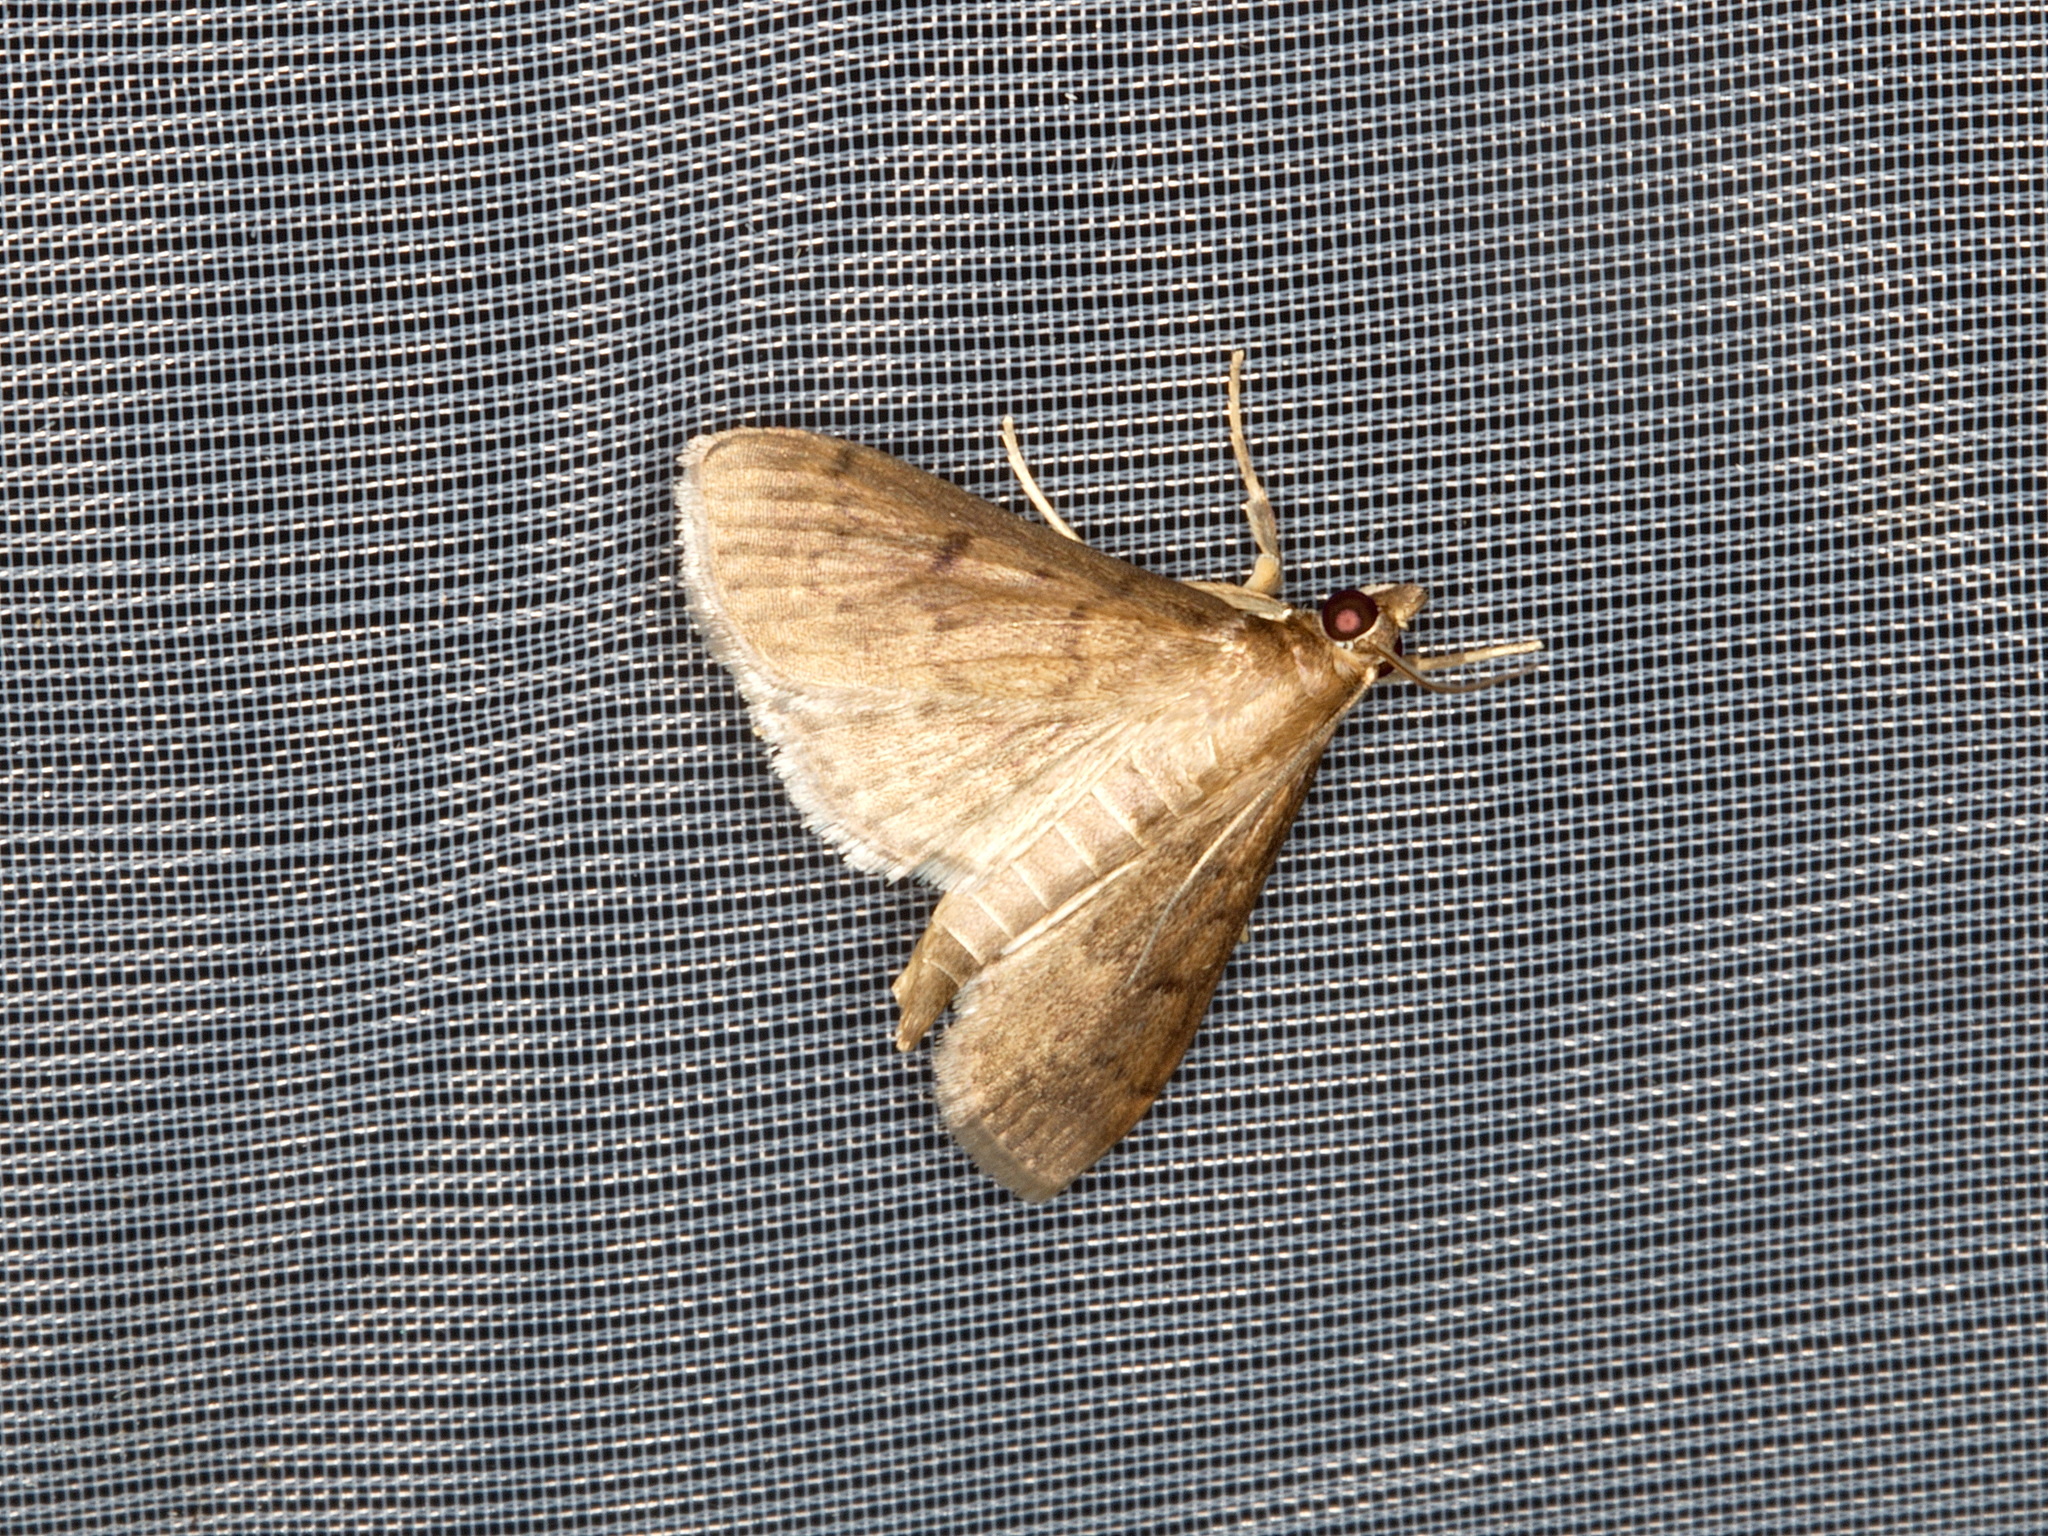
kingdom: Animalia
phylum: Arthropoda
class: Insecta
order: Lepidoptera
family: Crambidae
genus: Herpetogramma
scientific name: Herpetogramma phaeopteralis
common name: Dusky herpetogramma moth
